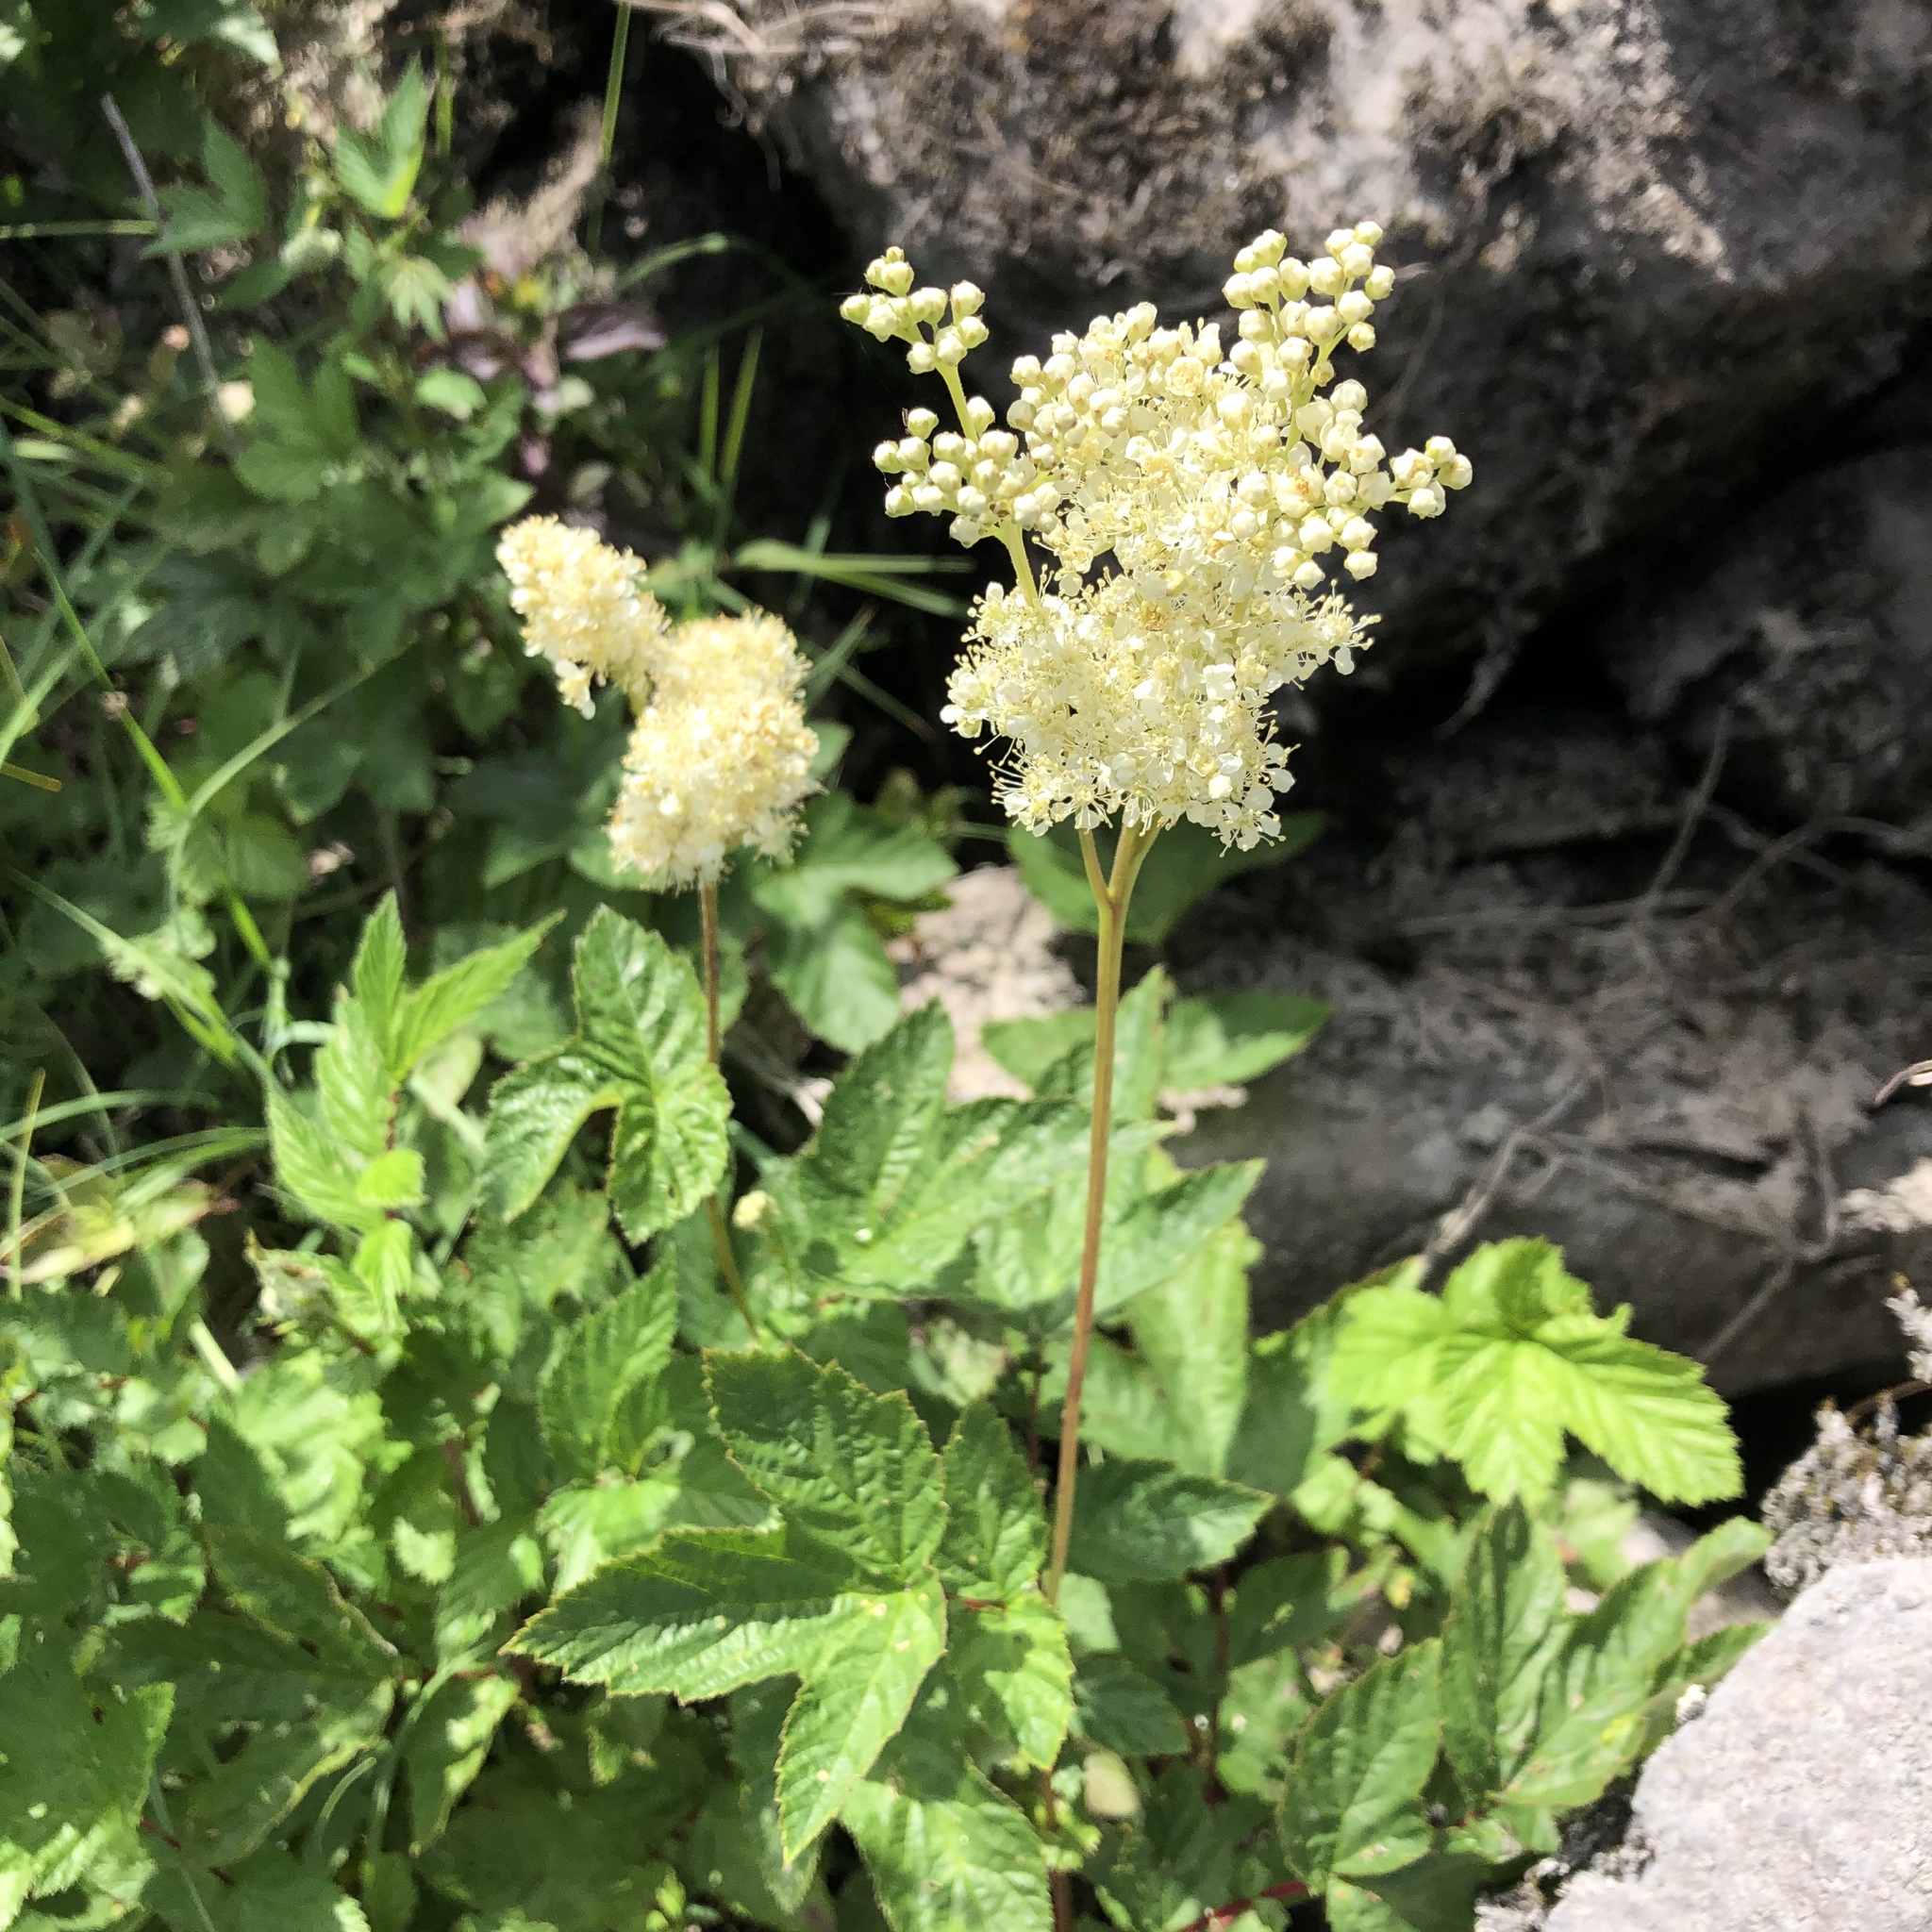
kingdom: Plantae
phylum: Tracheophyta
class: Magnoliopsida
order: Rosales
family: Rosaceae
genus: Filipendula
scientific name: Filipendula ulmaria
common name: Meadowsweet
